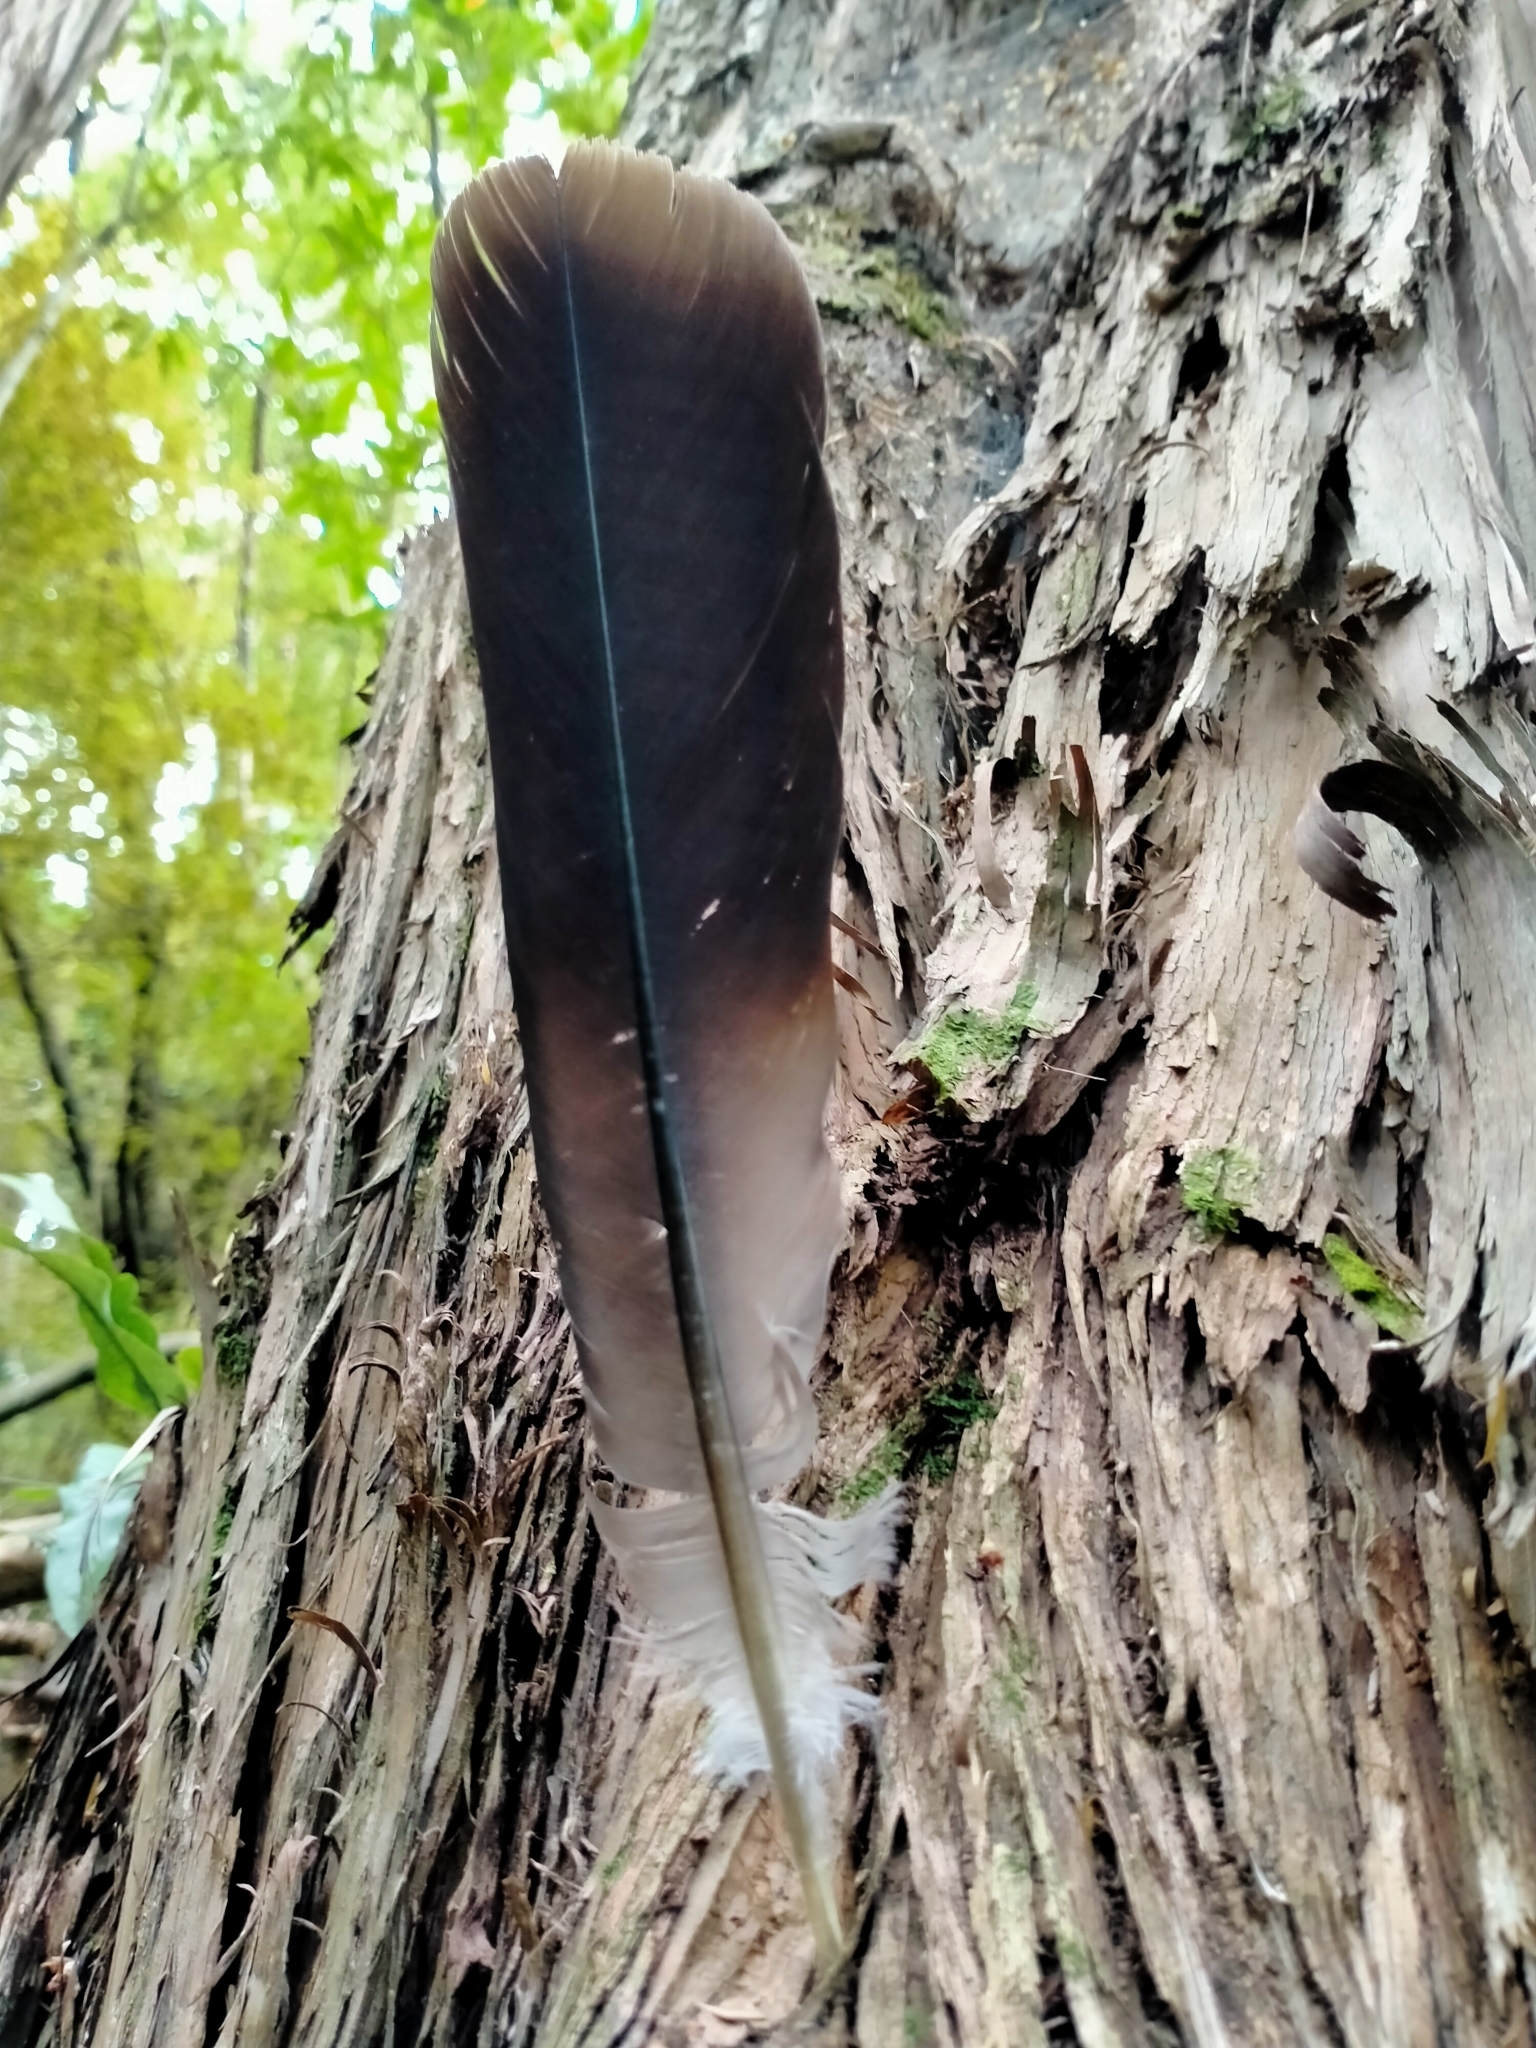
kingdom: Animalia
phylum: Chordata
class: Aves
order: Columbiformes
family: Columbidae
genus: Hemiphaga
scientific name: Hemiphaga novaeseelandiae
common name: New zealand pigeon
